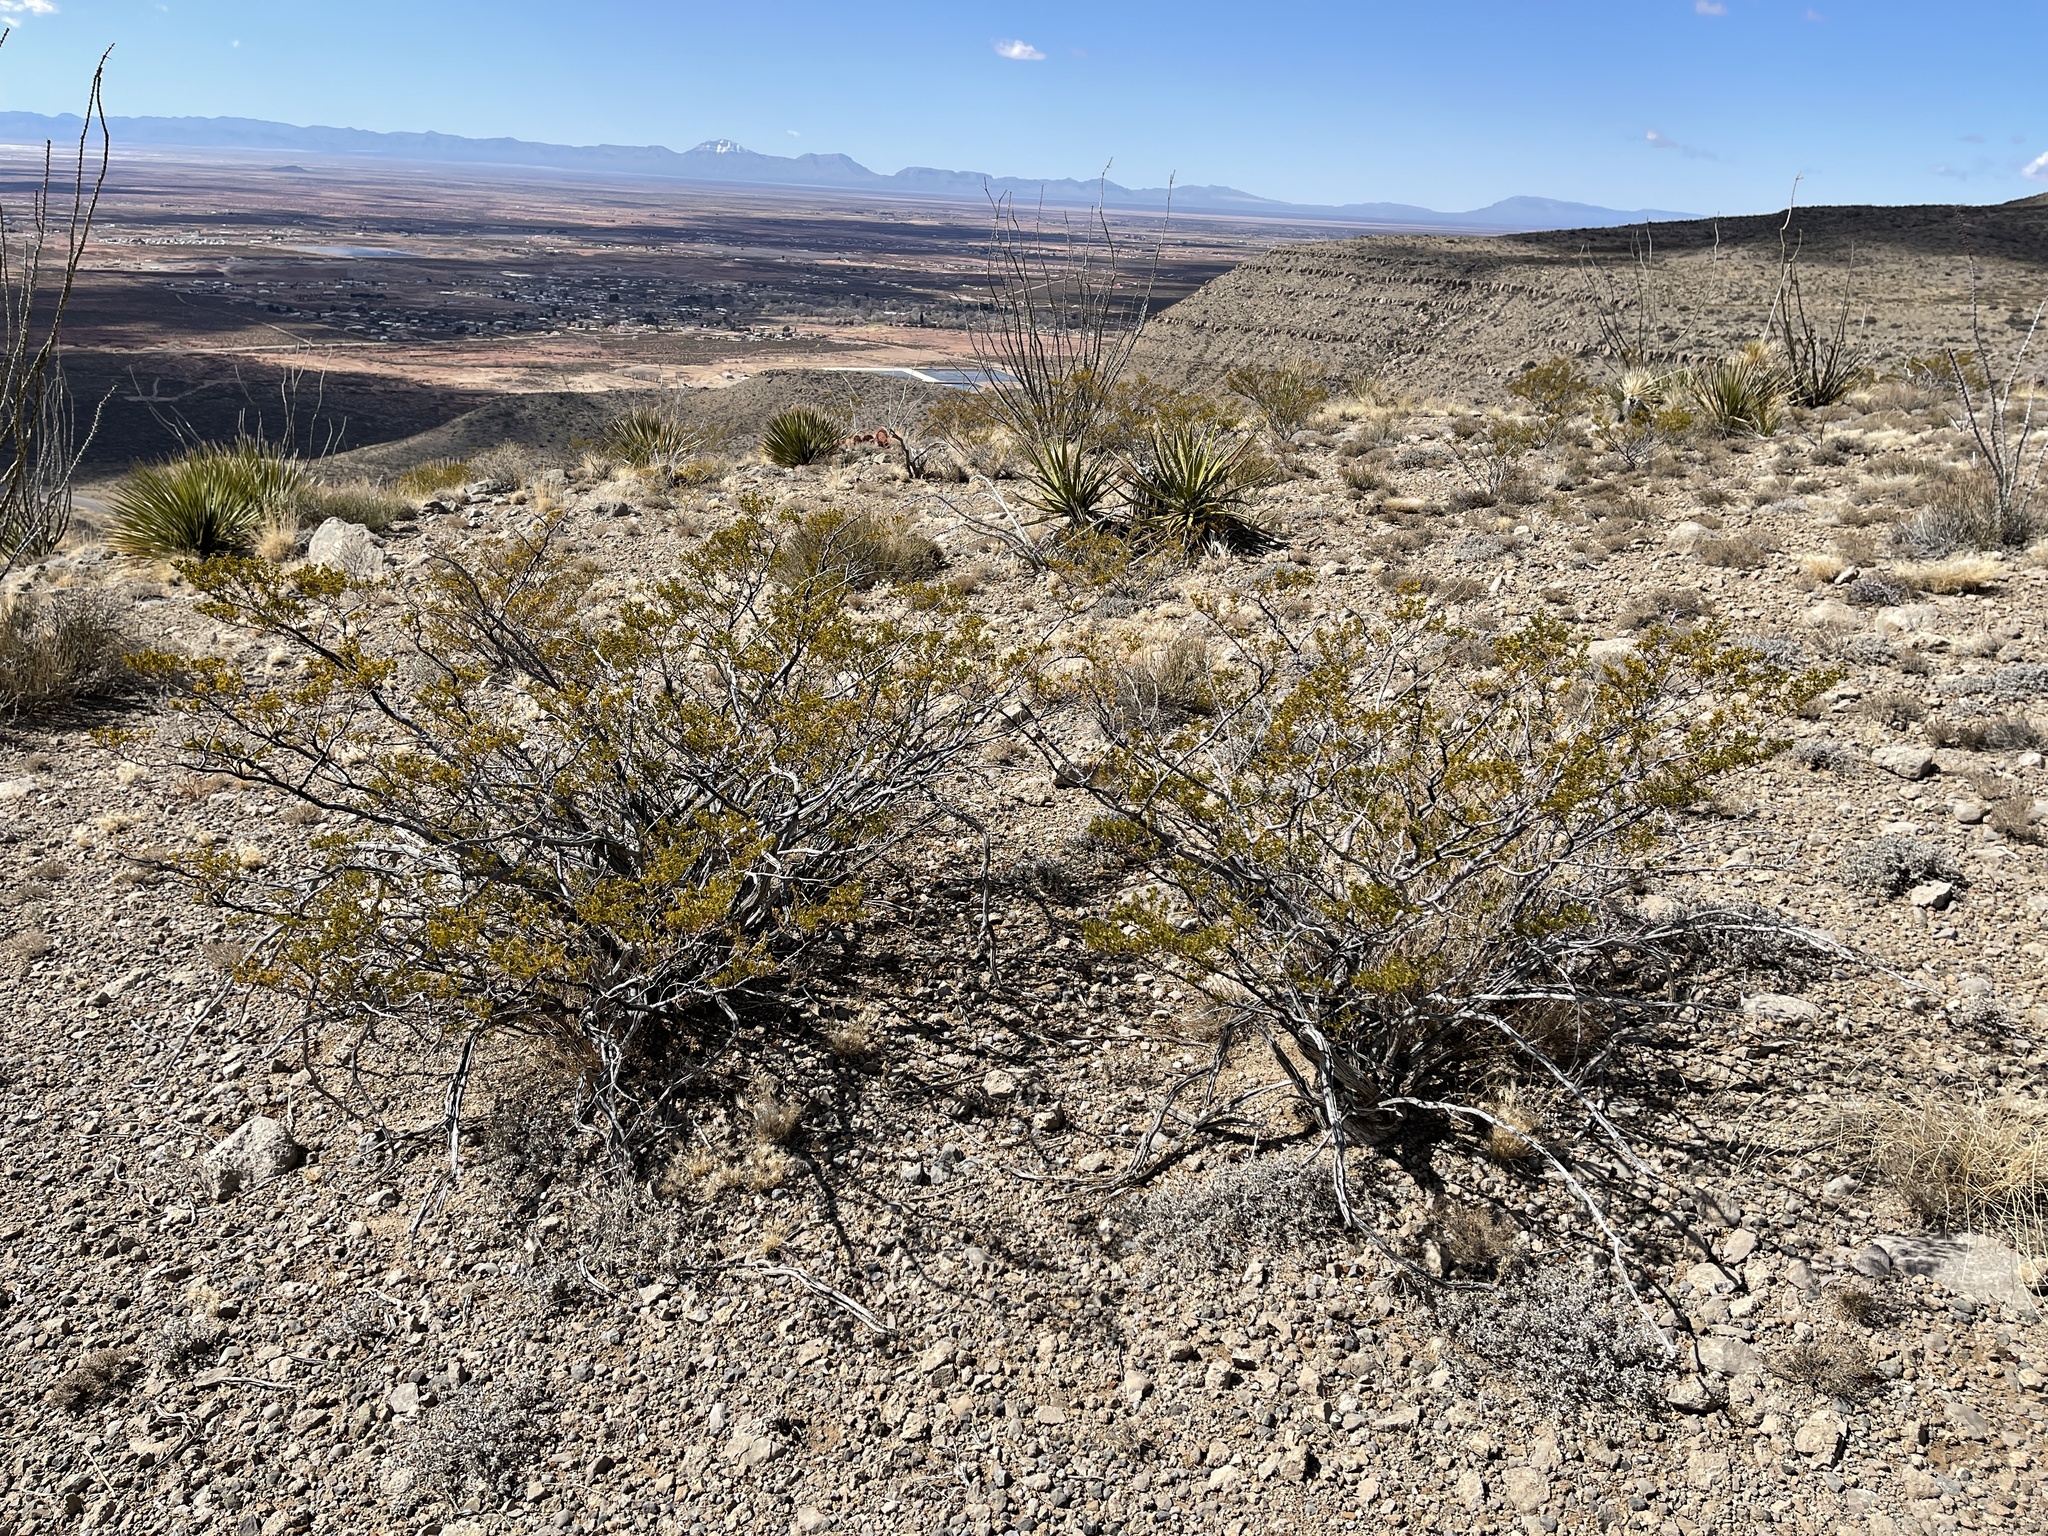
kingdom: Plantae
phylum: Tracheophyta
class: Magnoliopsida
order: Zygophyllales
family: Zygophyllaceae
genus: Larrea
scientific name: Larrea tridentata
